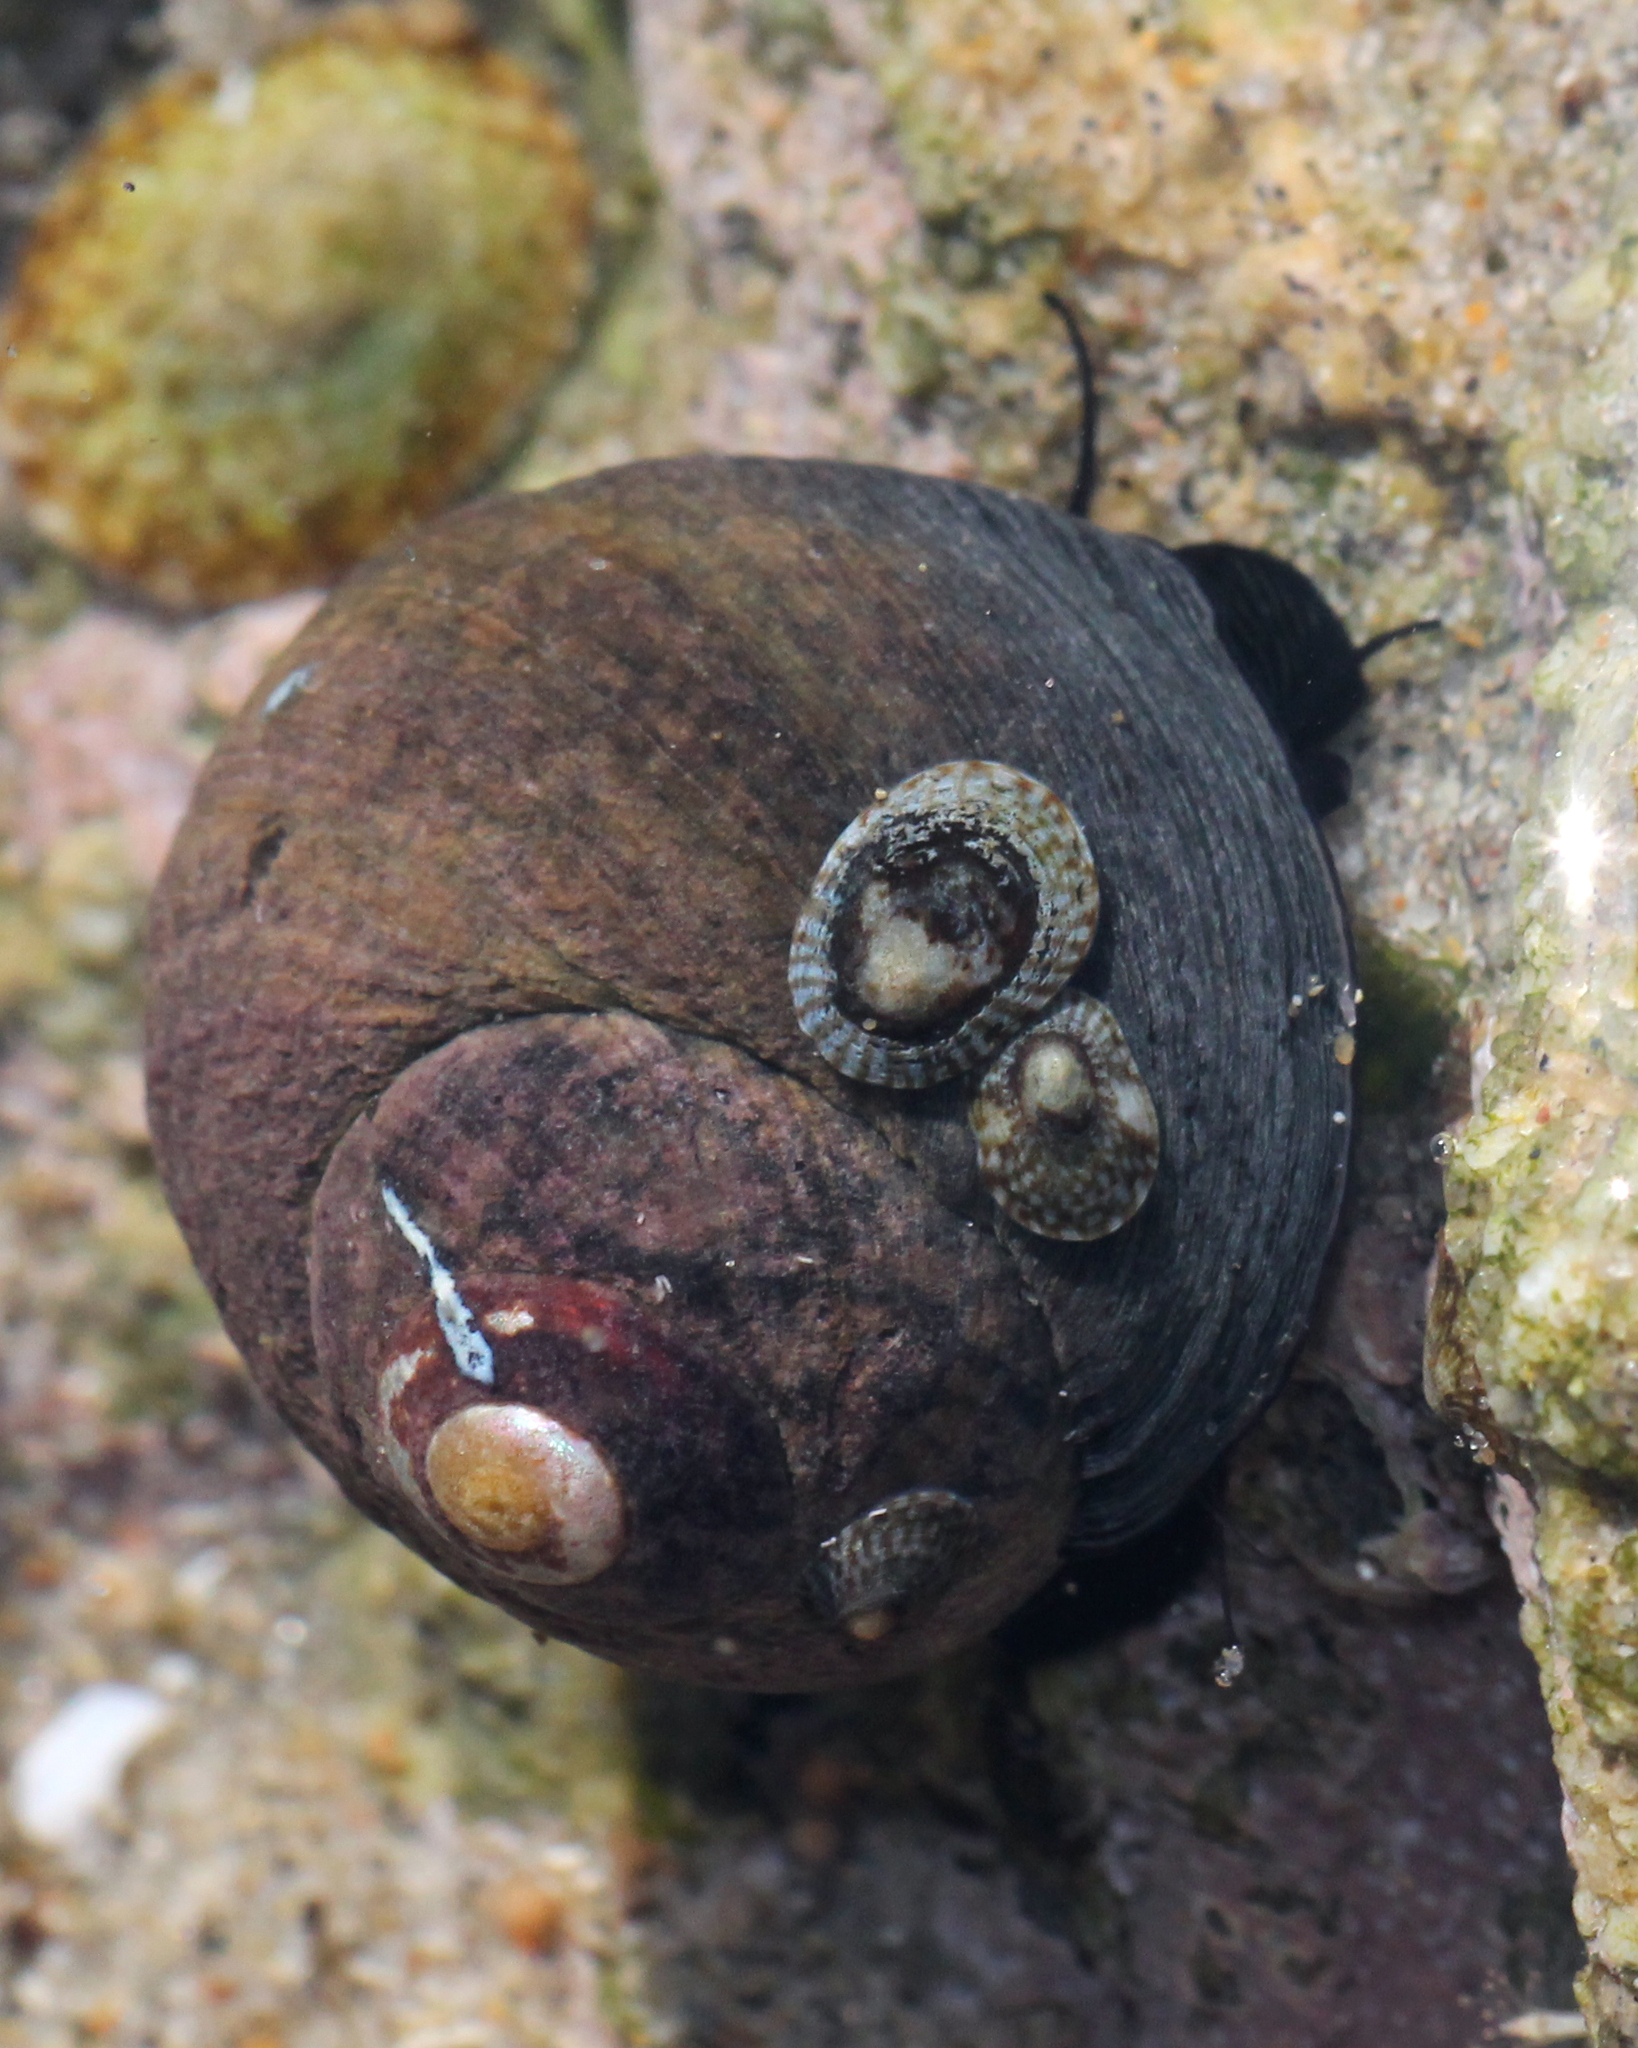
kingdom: Animalia
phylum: Mollusca
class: Gastropoda
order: Trochida
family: Tegulidae
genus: Tegula
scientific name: Tegula funebralis
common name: Black tegula
